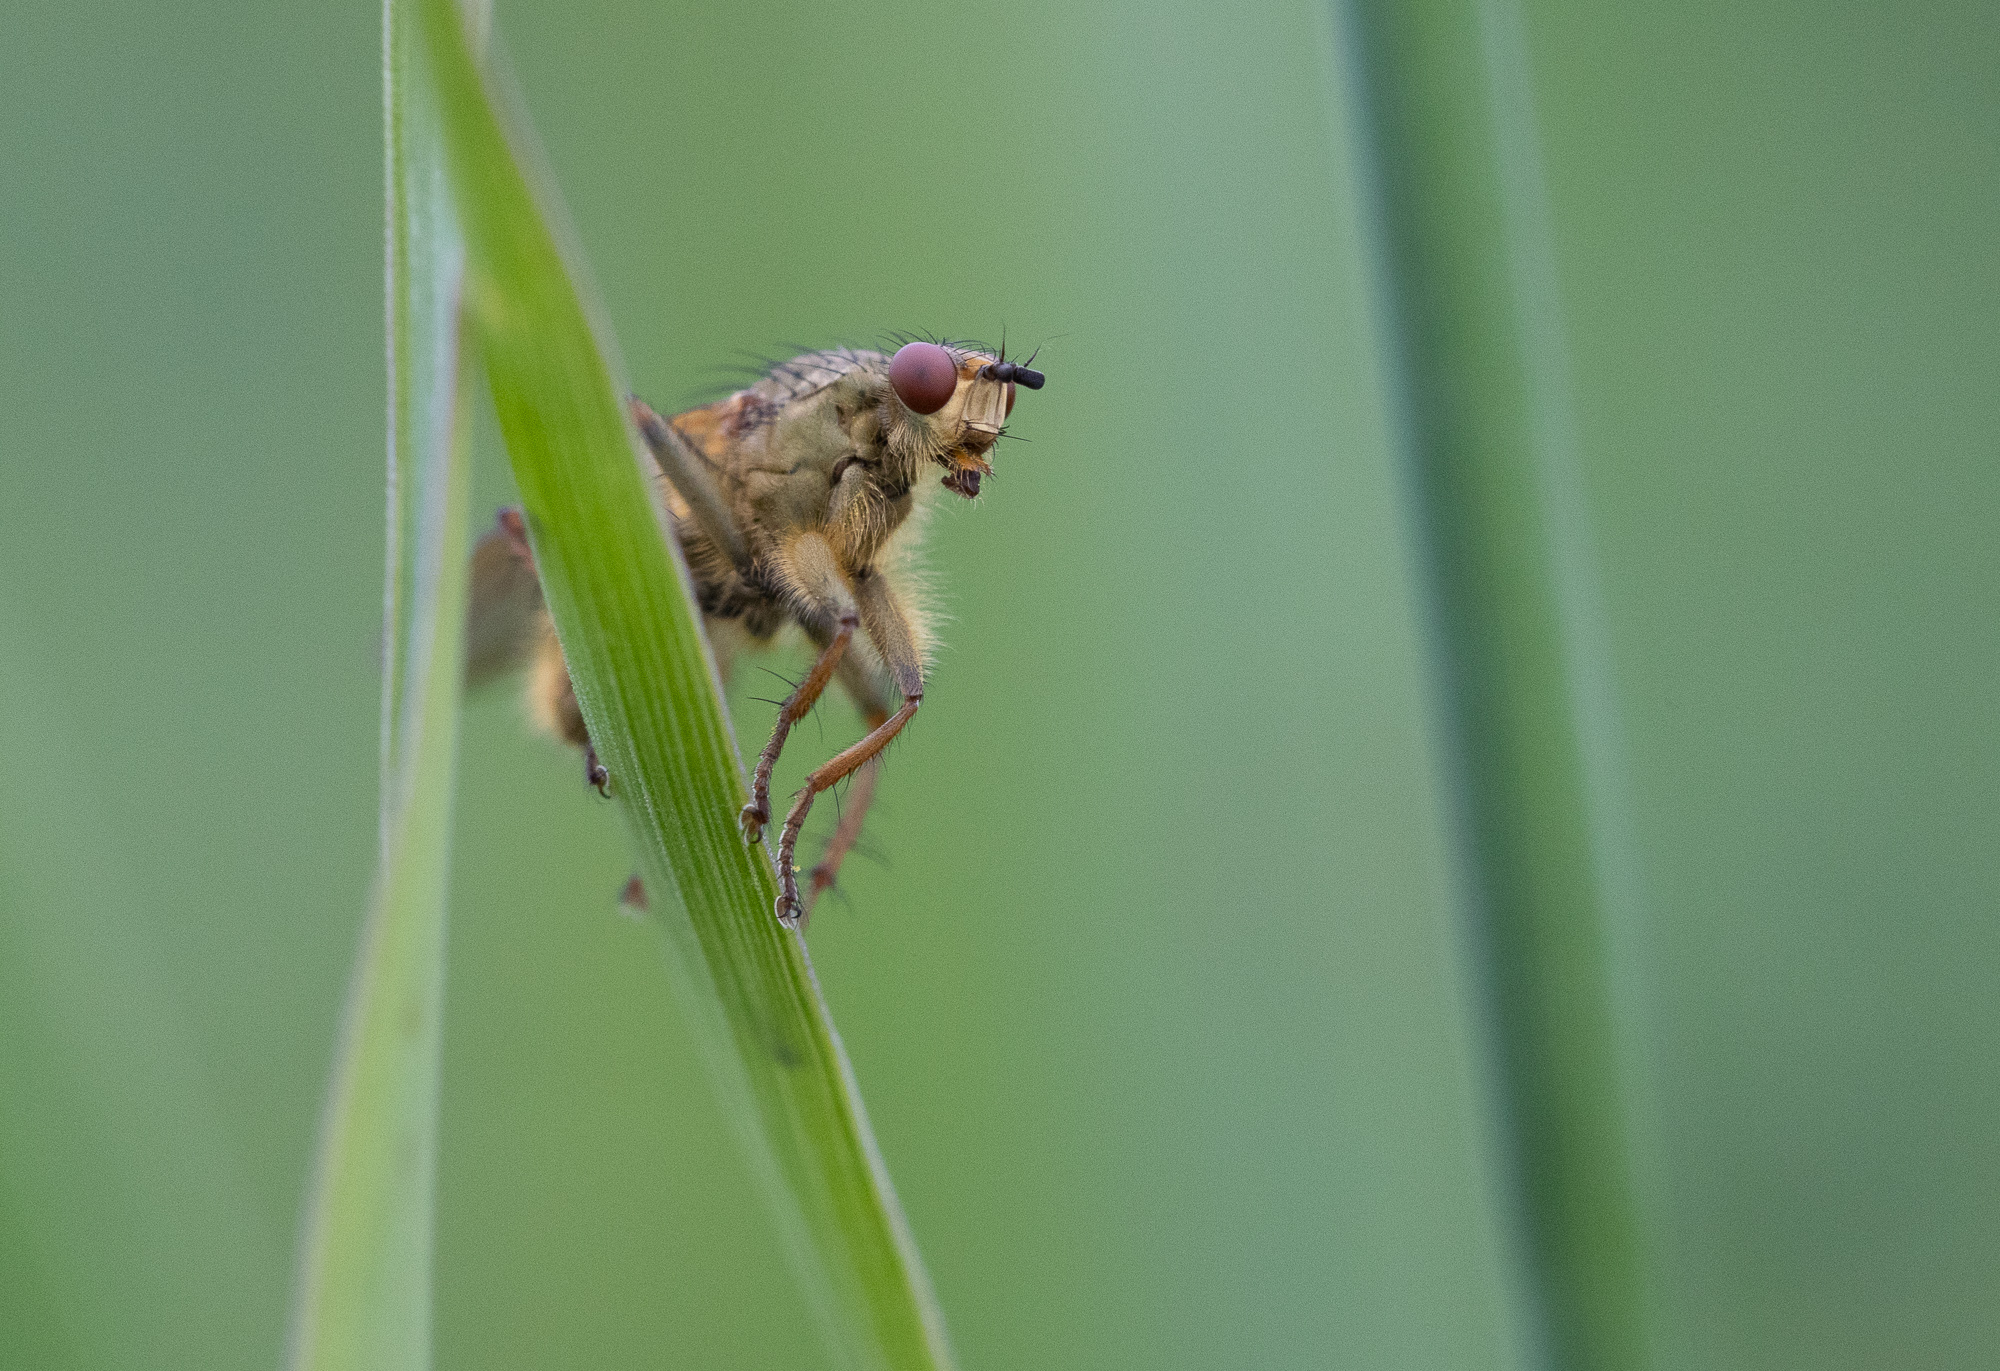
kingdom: Animalia
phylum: Arthropoda
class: Insecta
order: Diptera
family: Scathophagidae
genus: Scathophaga
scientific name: Scathophaga stercoraria
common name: Yellow dung fly
